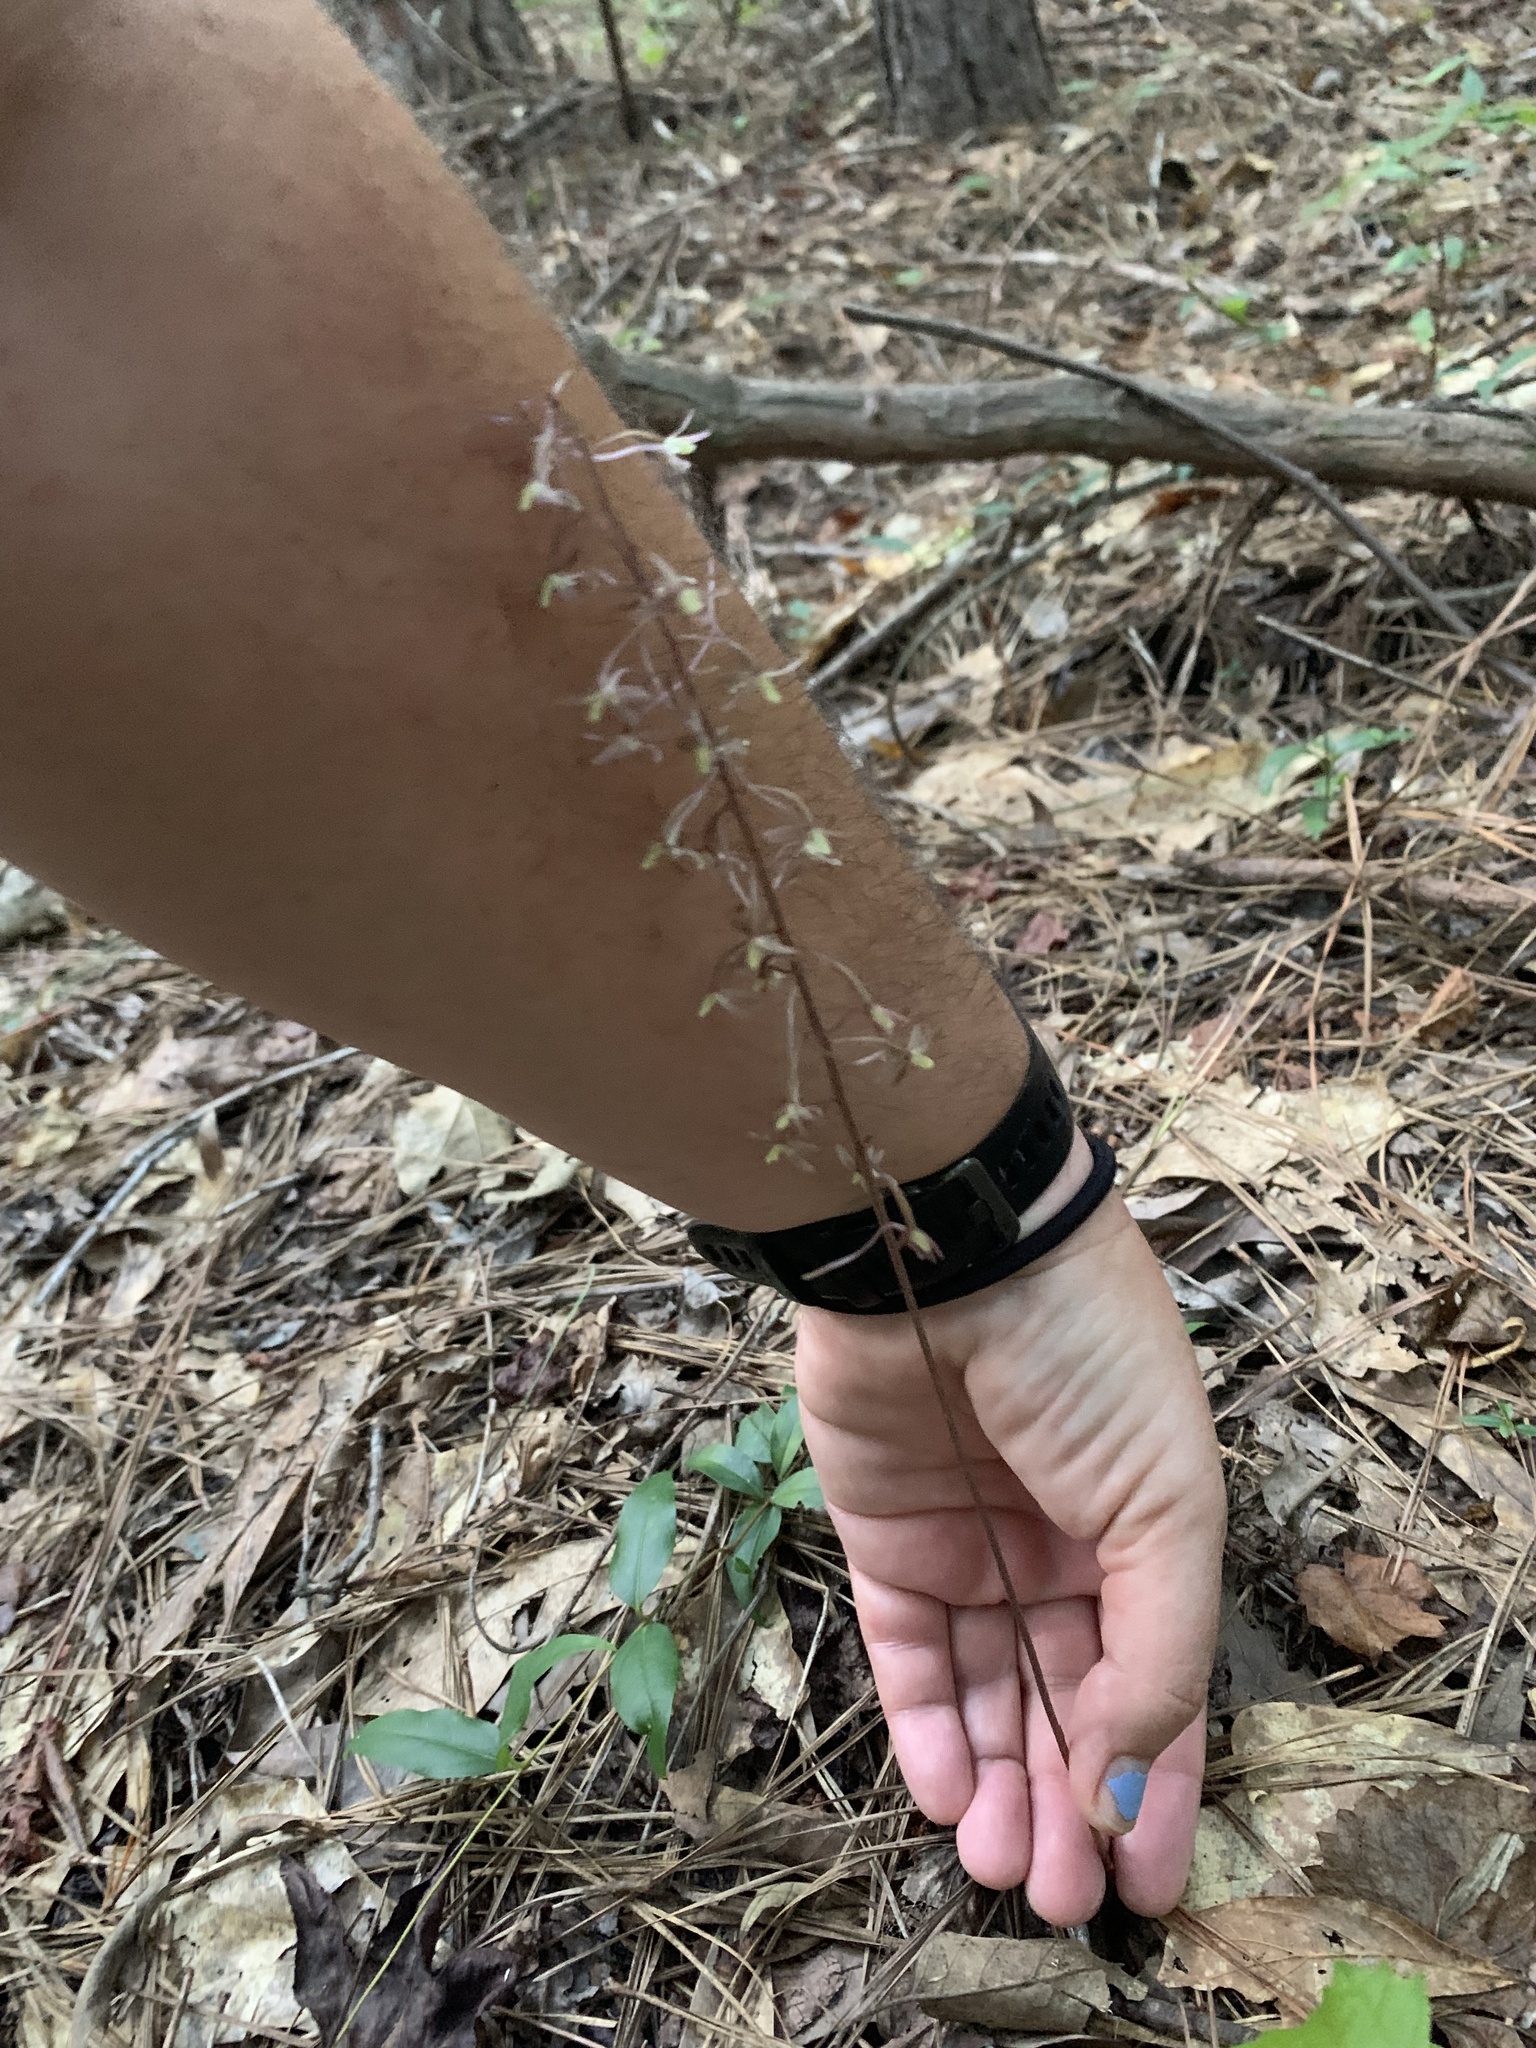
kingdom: Plantae
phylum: Tracheophyta
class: Liliopsida
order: Asparagales
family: Orchidaceae
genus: Tipularia
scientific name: Tipularia discolor
